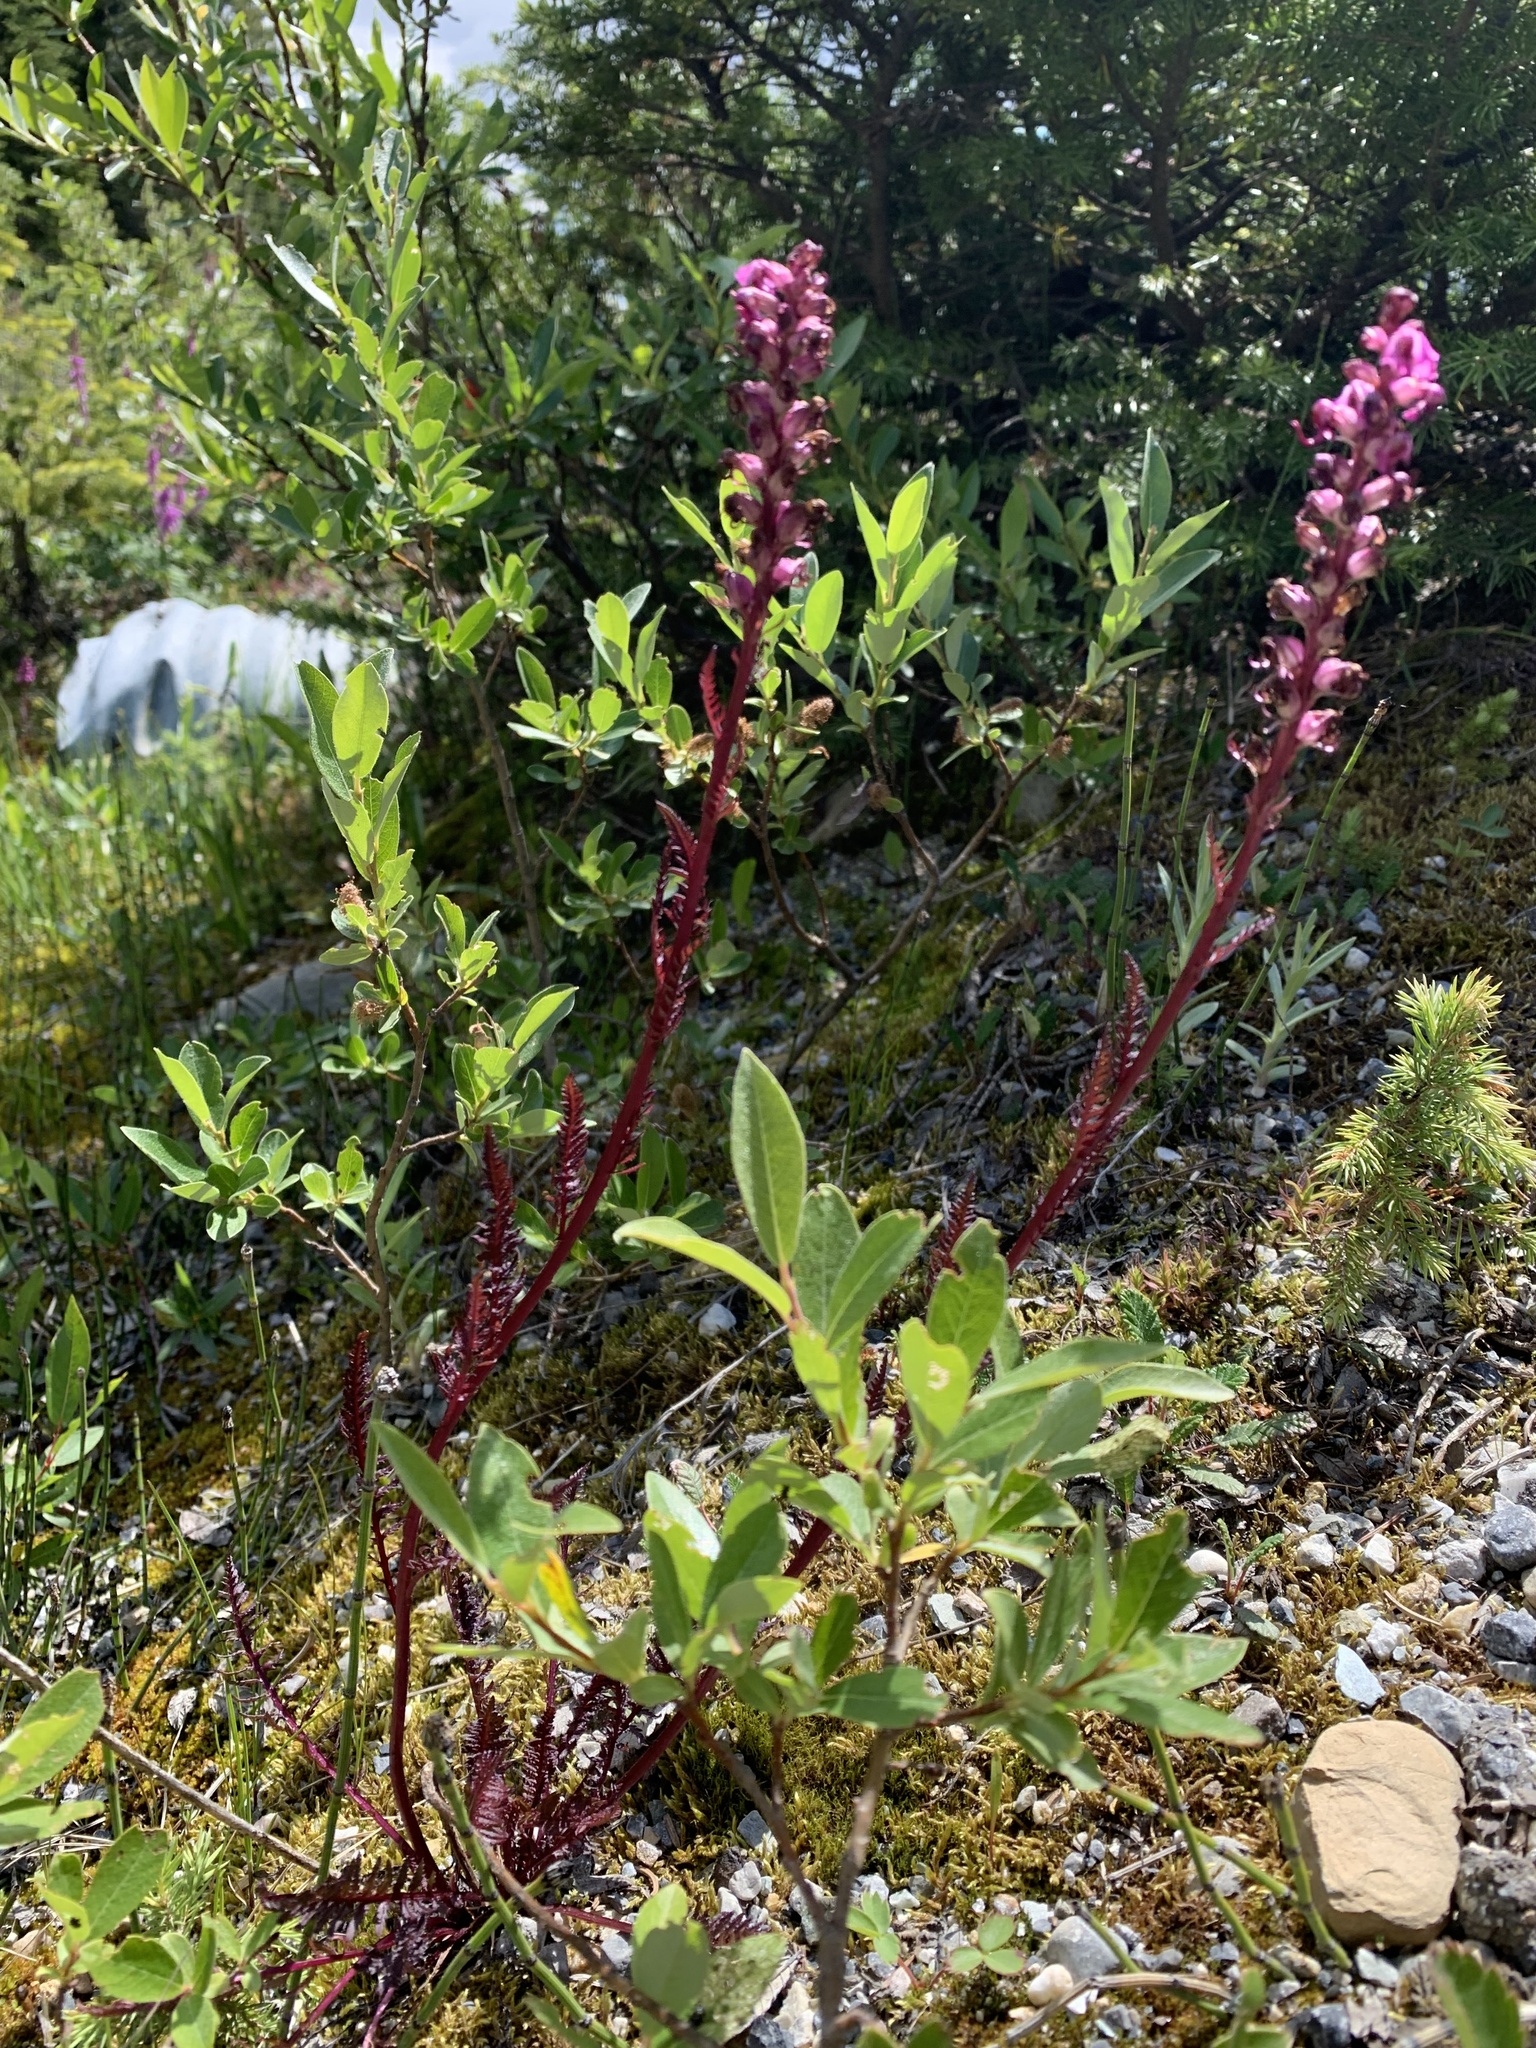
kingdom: Plantae
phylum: Tracheophyta
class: Magnoliopsida
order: Lamiales
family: Orobanchaceae
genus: Pedicularis
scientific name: Pedicularis groenlandica
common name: Elephant's-head
